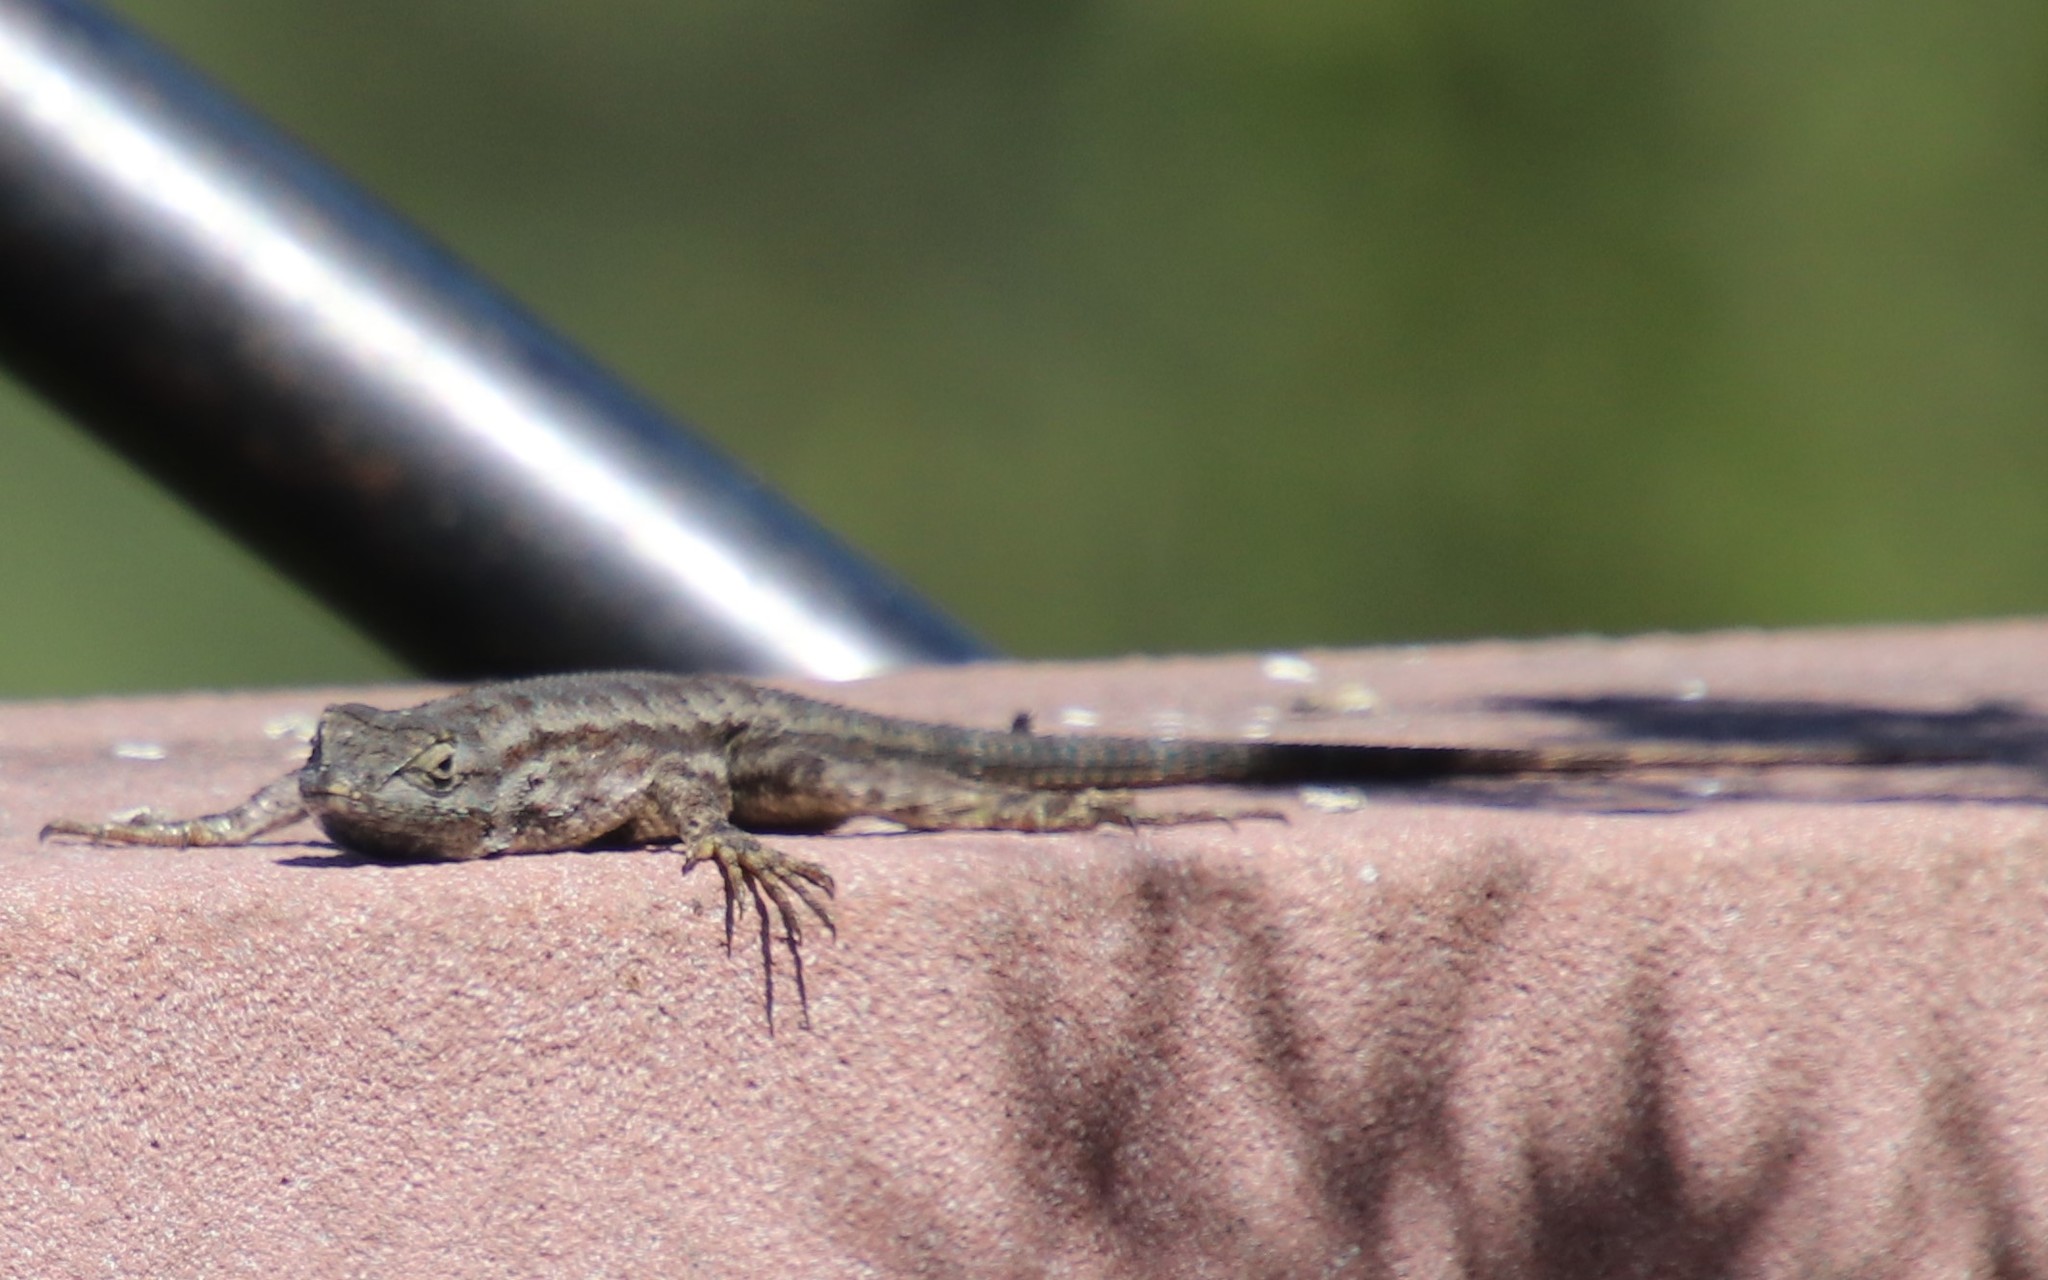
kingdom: Animalia
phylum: Chordata
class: Squamata
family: Phrynosomatidae
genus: Sceloporus
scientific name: Sceloporus occidentalis
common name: Western fence lizard
